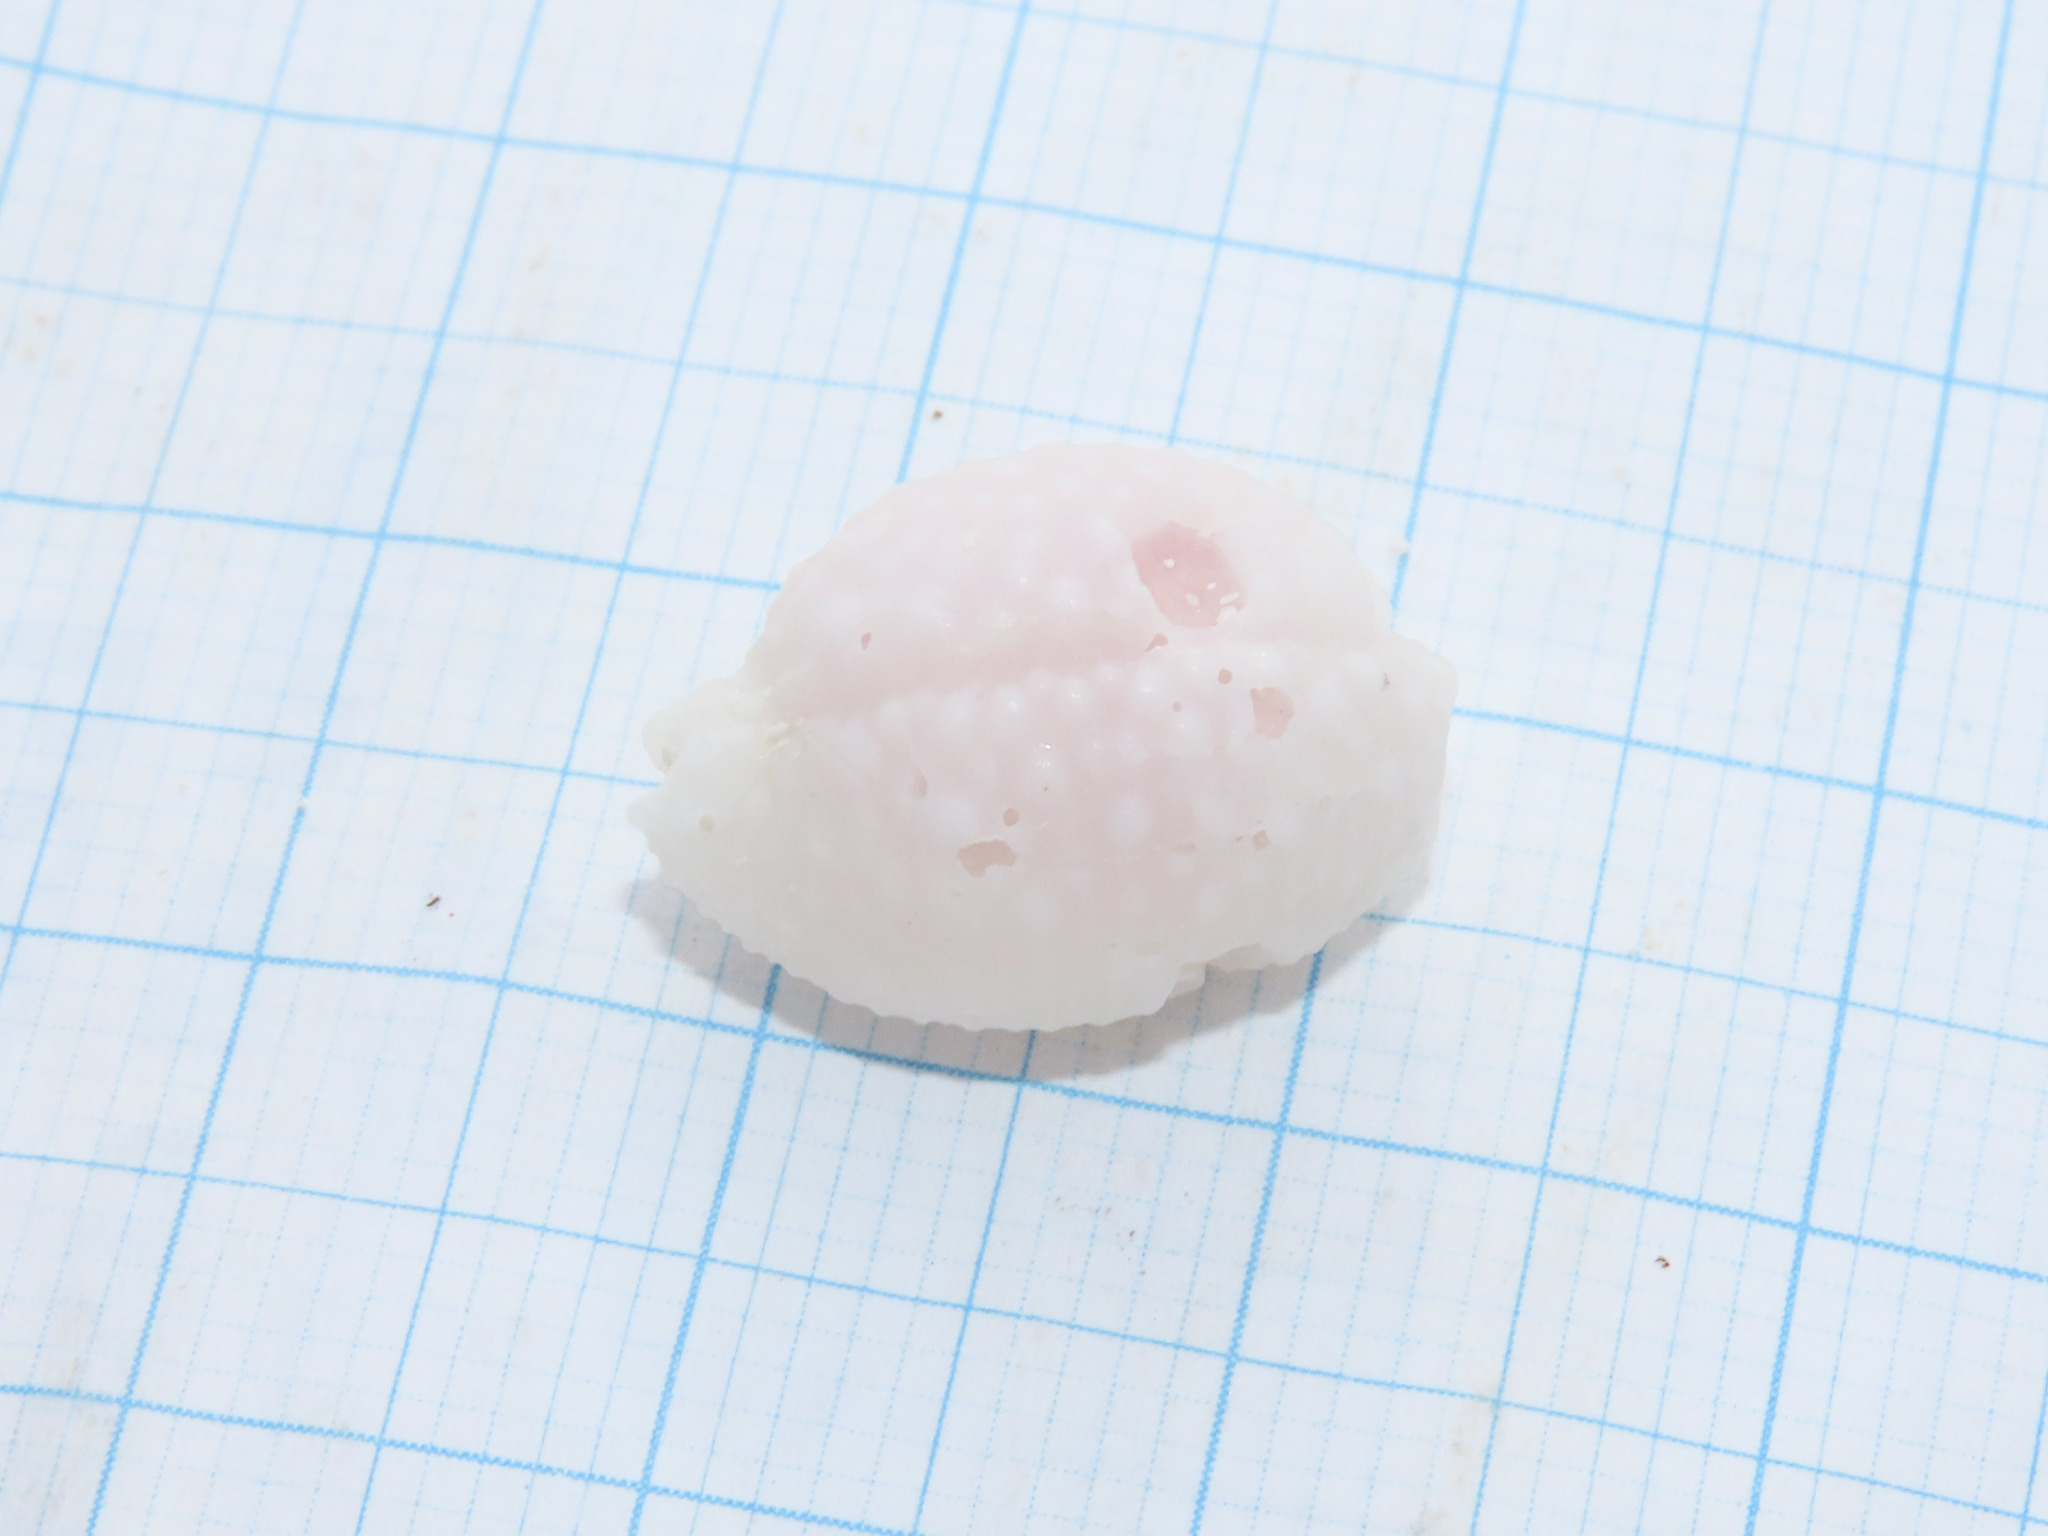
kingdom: Animalia
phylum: Mollusca
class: Gastropoda
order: Littorinimorpha
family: Cypraeidae
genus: Nucleolaria
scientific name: Nucleolaria nucleus
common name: Kernel cowry
